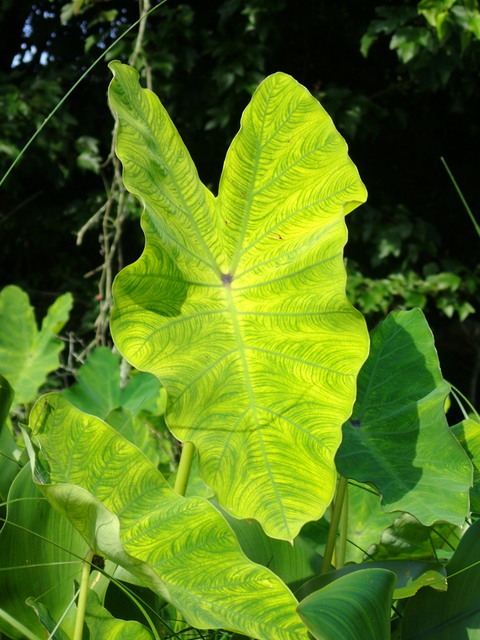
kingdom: Plantae
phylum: Tracheophyta
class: Liliopsida
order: Alismatales
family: Araceae
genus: Colocasia
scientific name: Colocasia esculenta
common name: Taro
